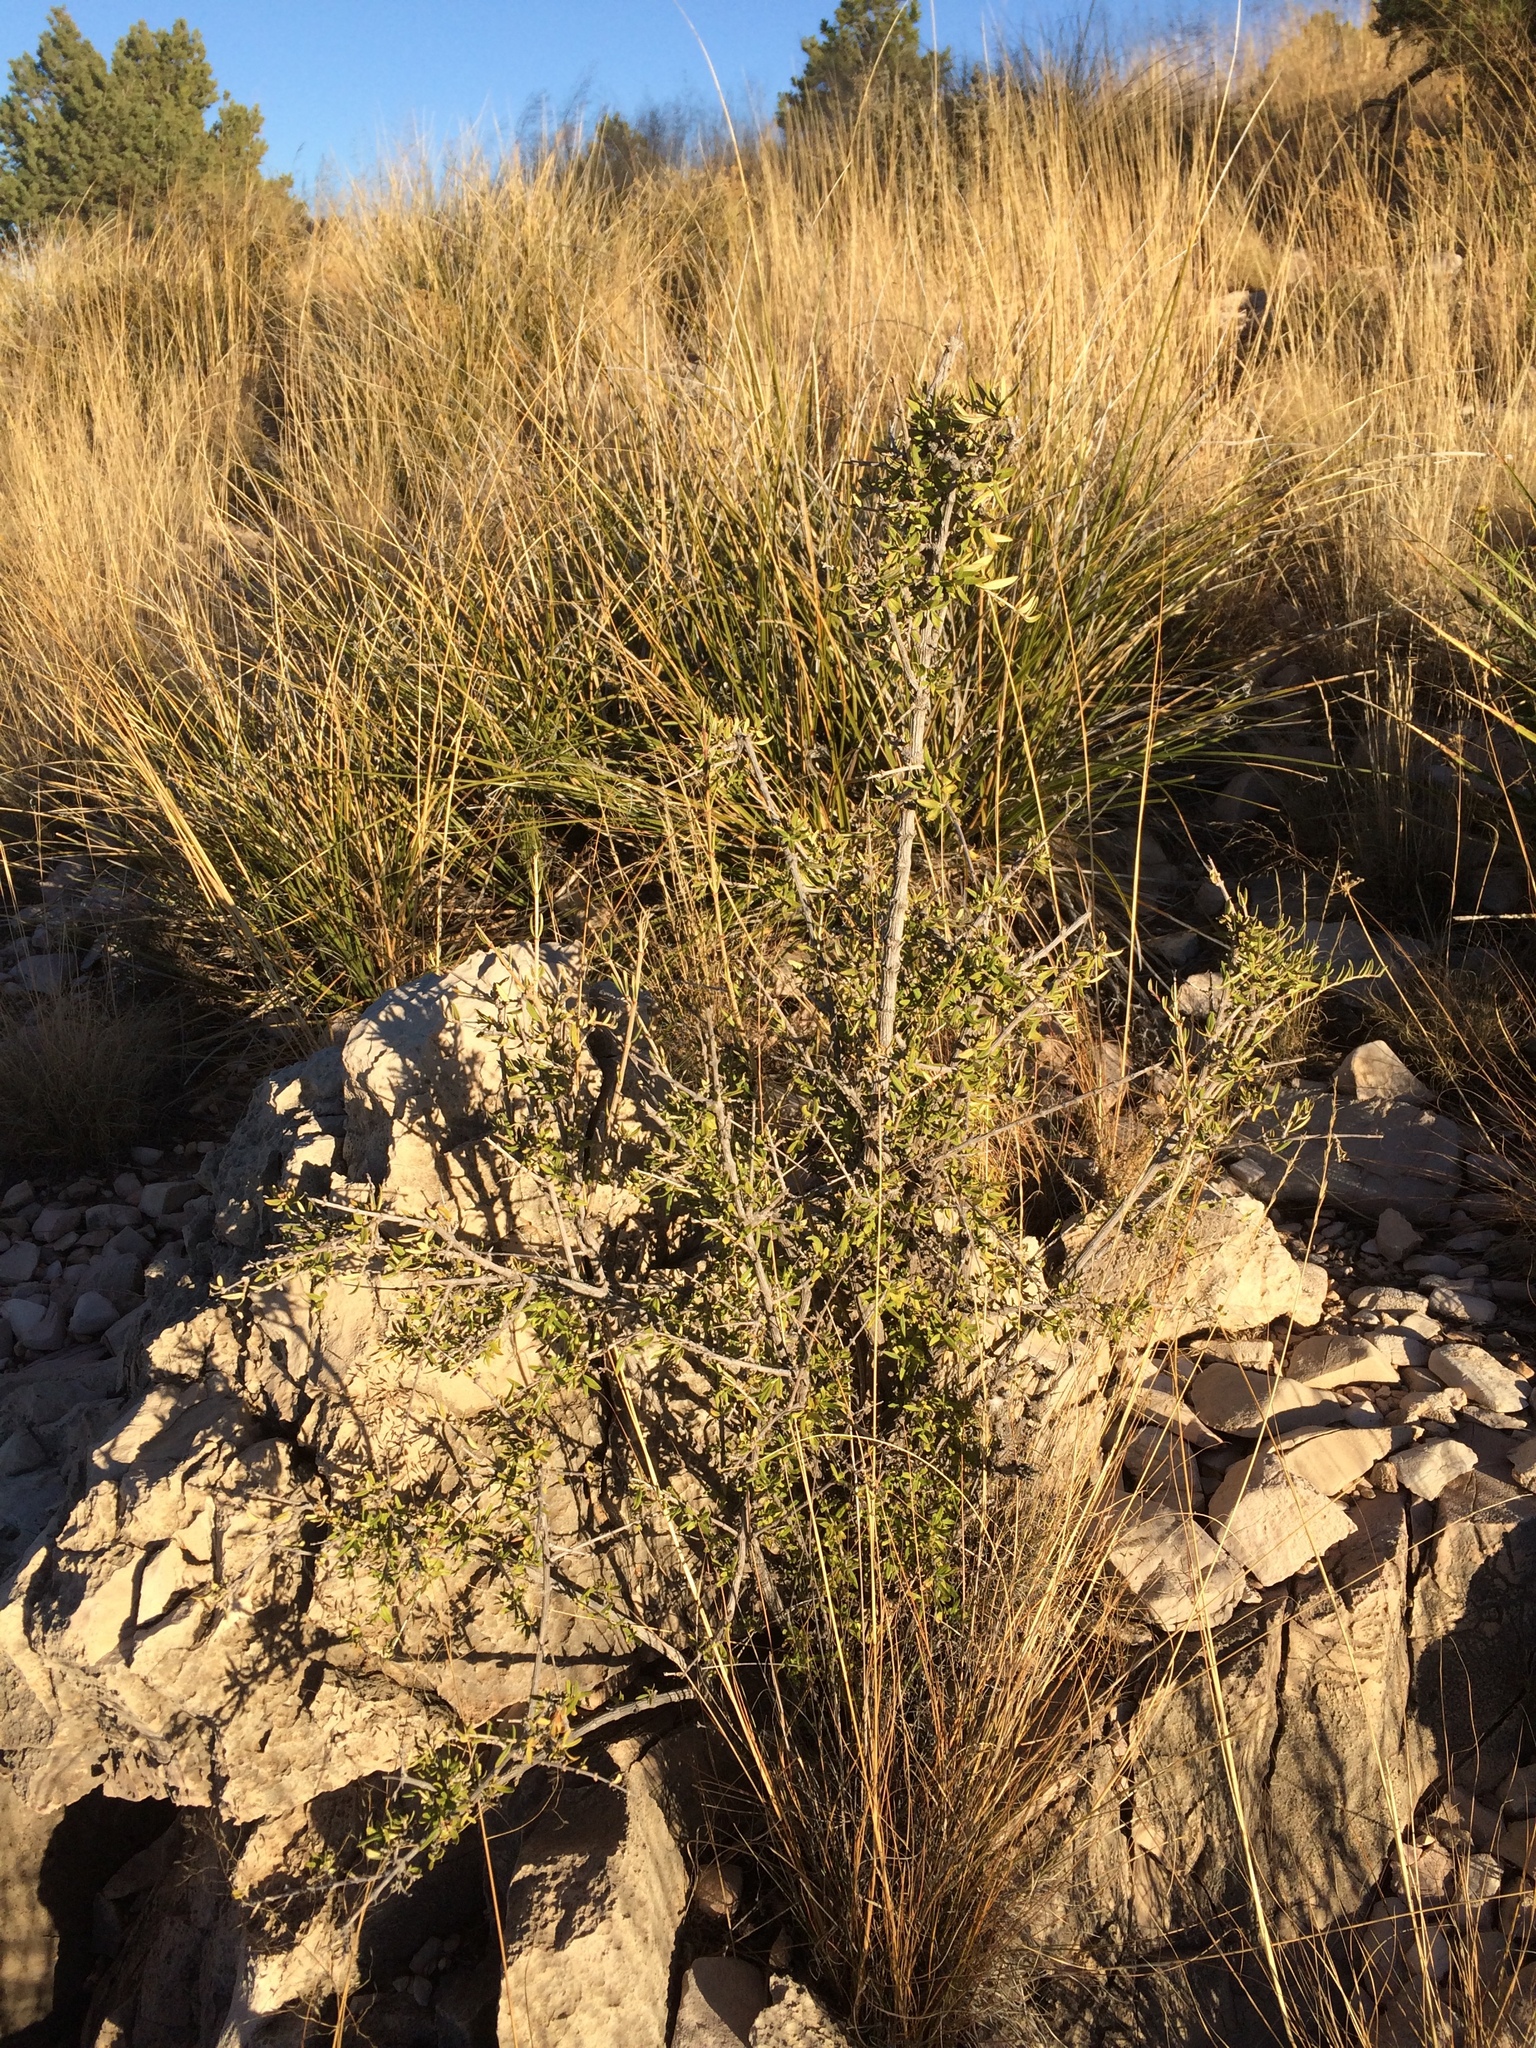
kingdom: Plantae
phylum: Tracheophyta
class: Magnoliopsida
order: Cornales
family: Hydrangeaceae
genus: Fendlera
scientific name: Fendlera rupicola
